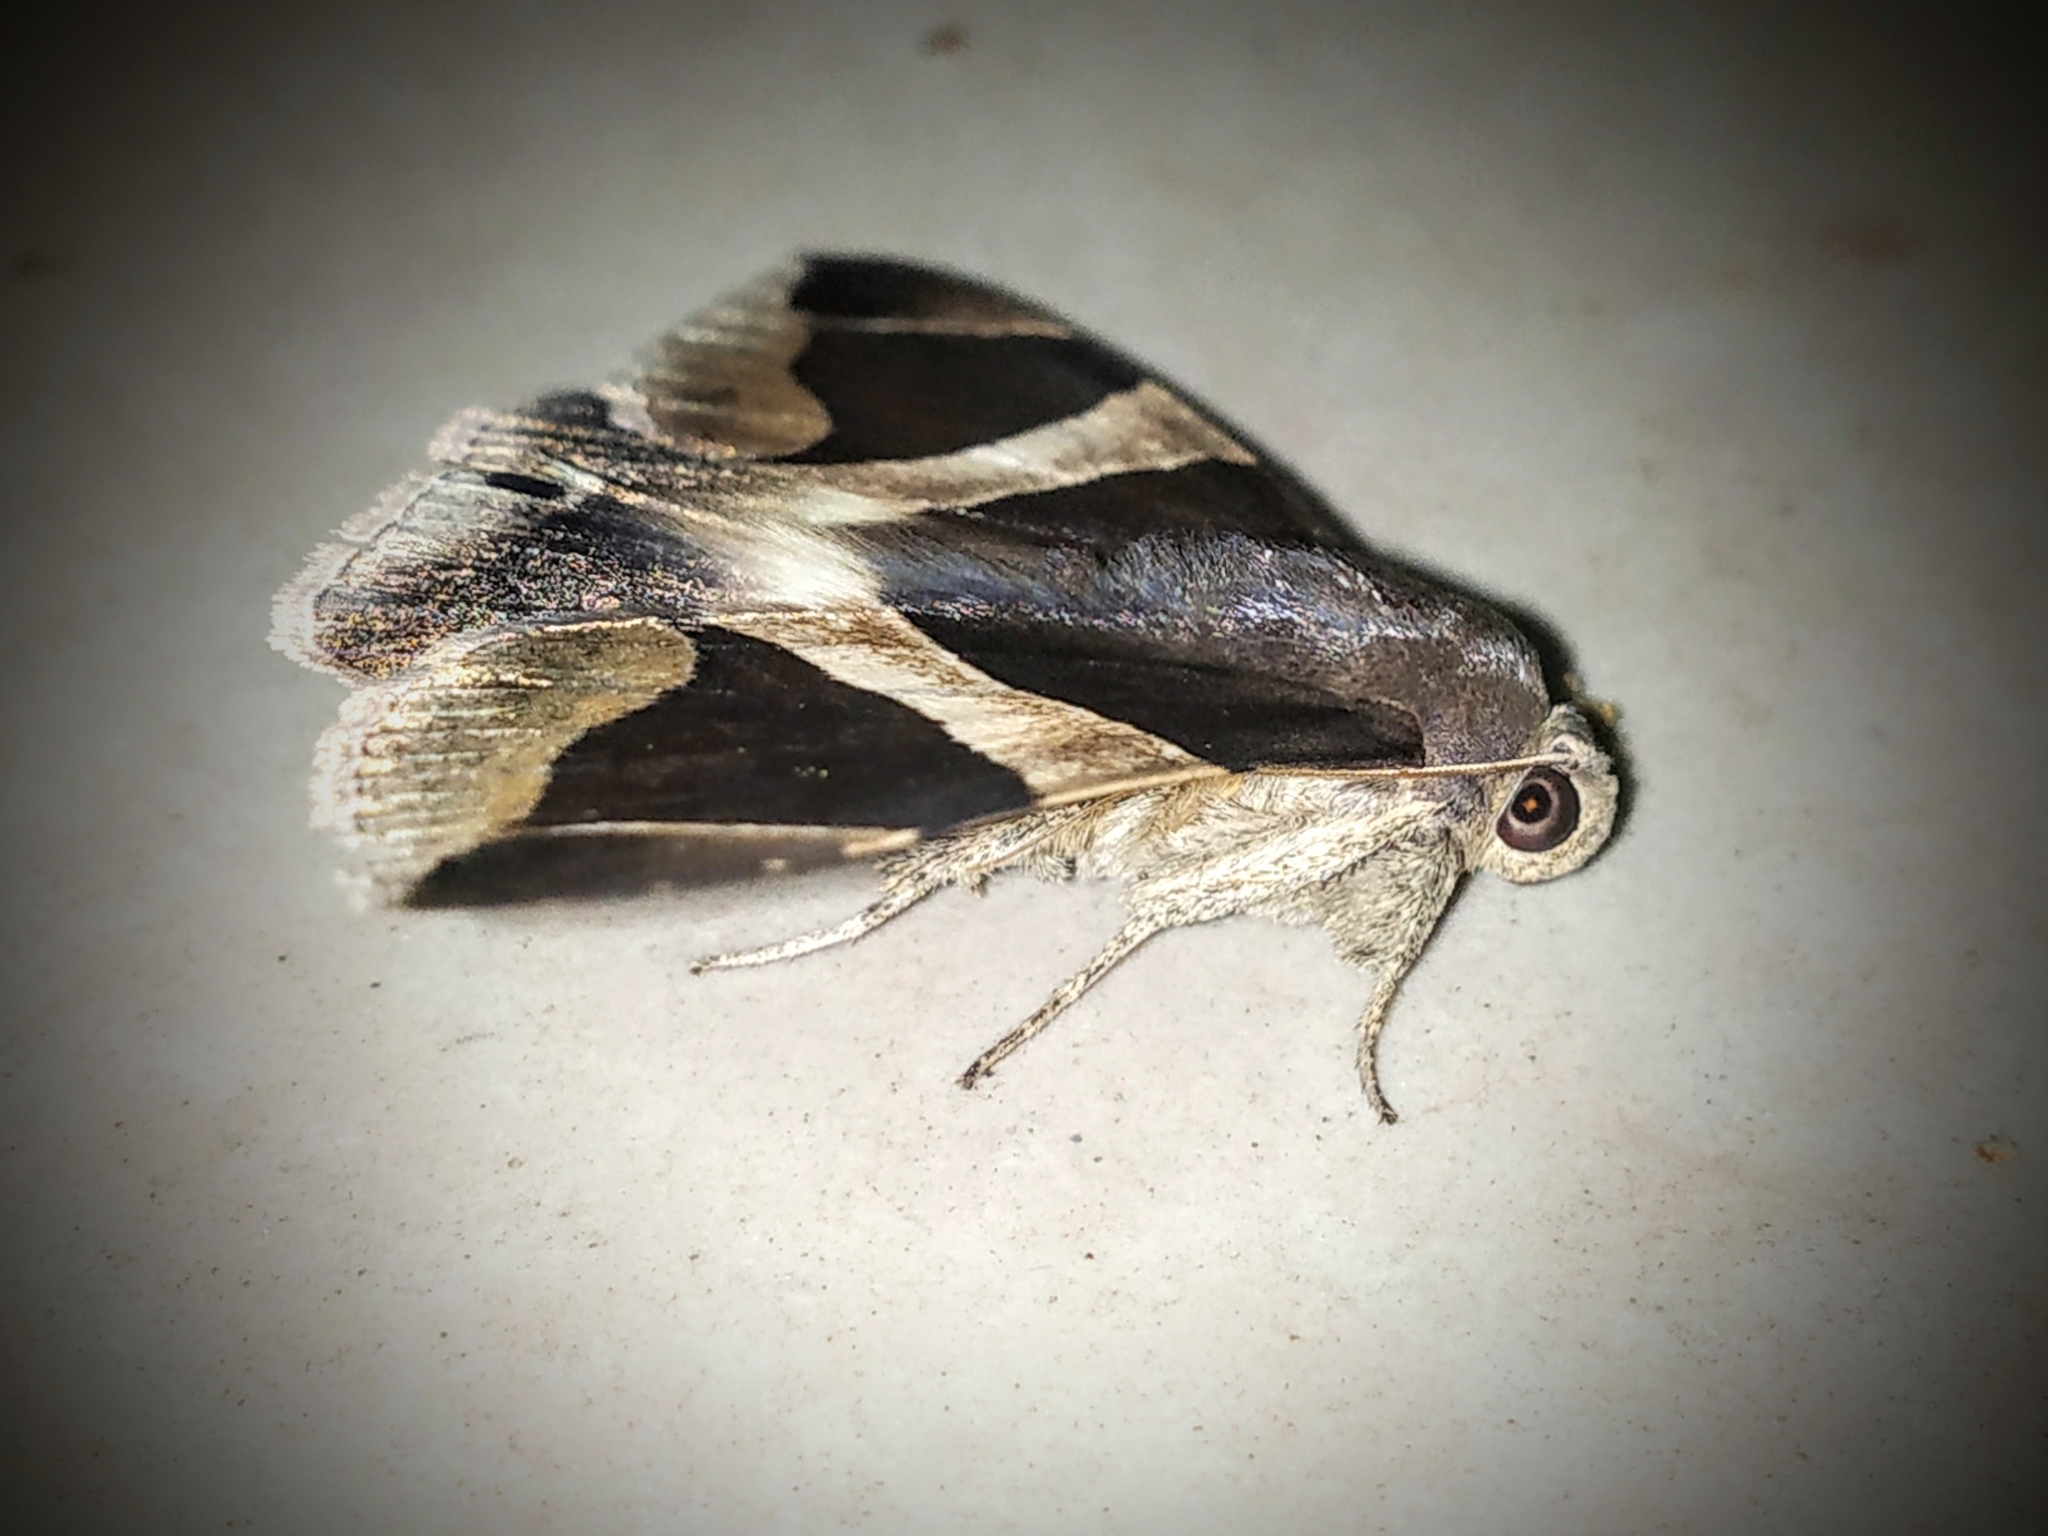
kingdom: Animalia
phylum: Arthropoda
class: Insecta
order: Lepidoptera
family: Erebidae
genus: Bastilla
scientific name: Bastilla crameri
